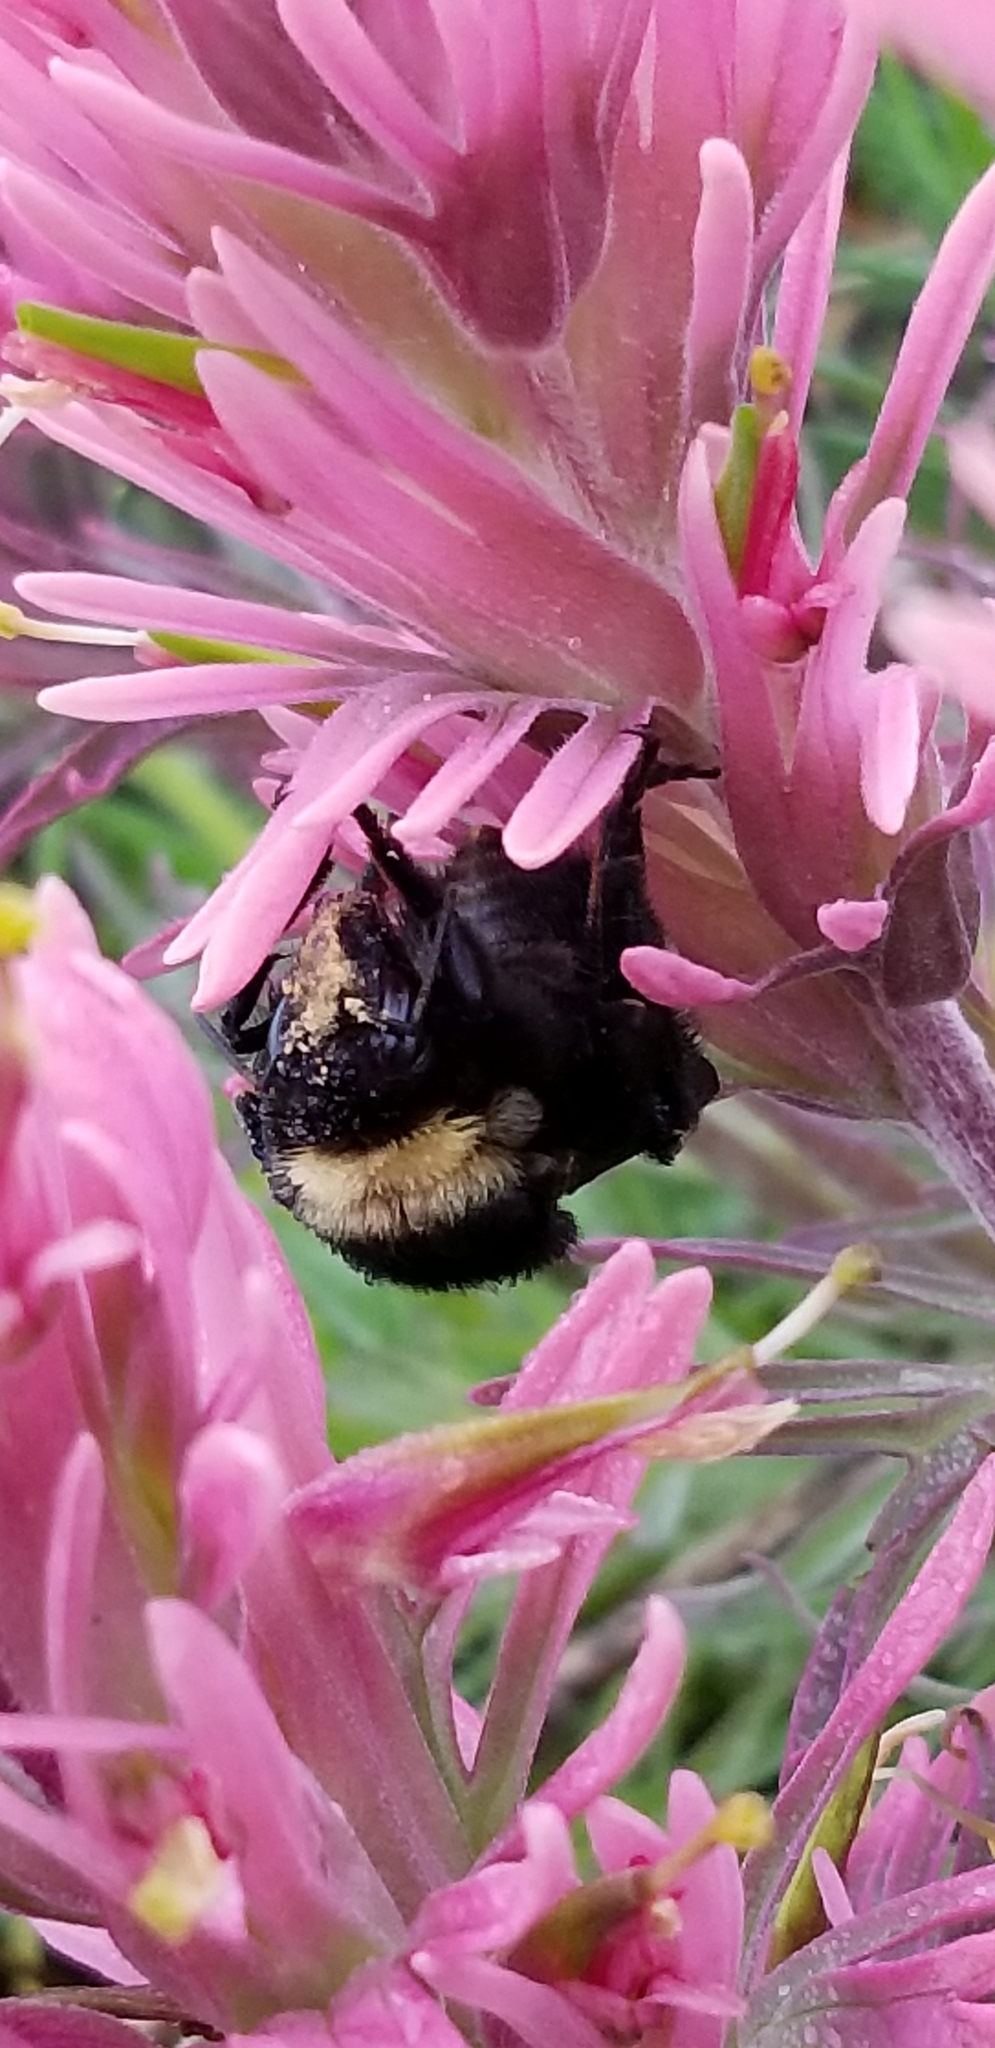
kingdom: Animalia
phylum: Arthropoda
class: Insecta
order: Hymenoptera
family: Apidae
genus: Bombus
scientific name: Bombus pensylvanicus
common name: Bumble bee
